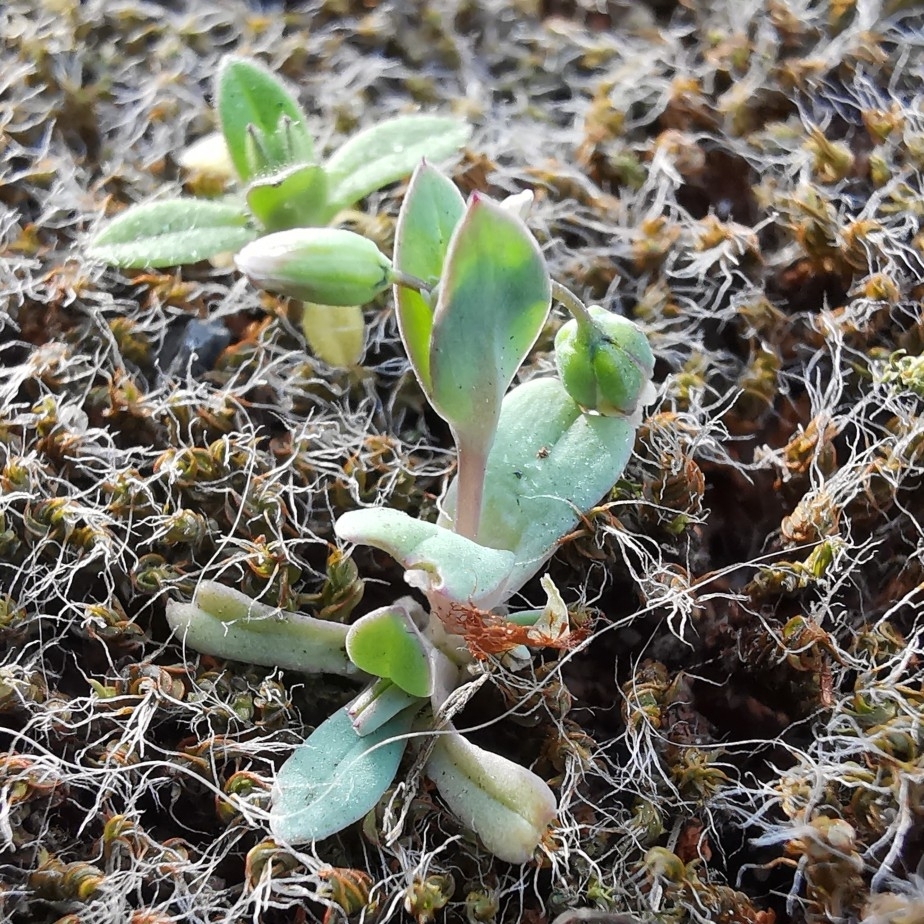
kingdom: Plantae
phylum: Tracheophyta
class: Magnoliopsida
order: Caryophyllales
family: Caryophyllaceae
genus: Holosteum
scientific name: Holosteum umbellatum
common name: Jagged chickweed
